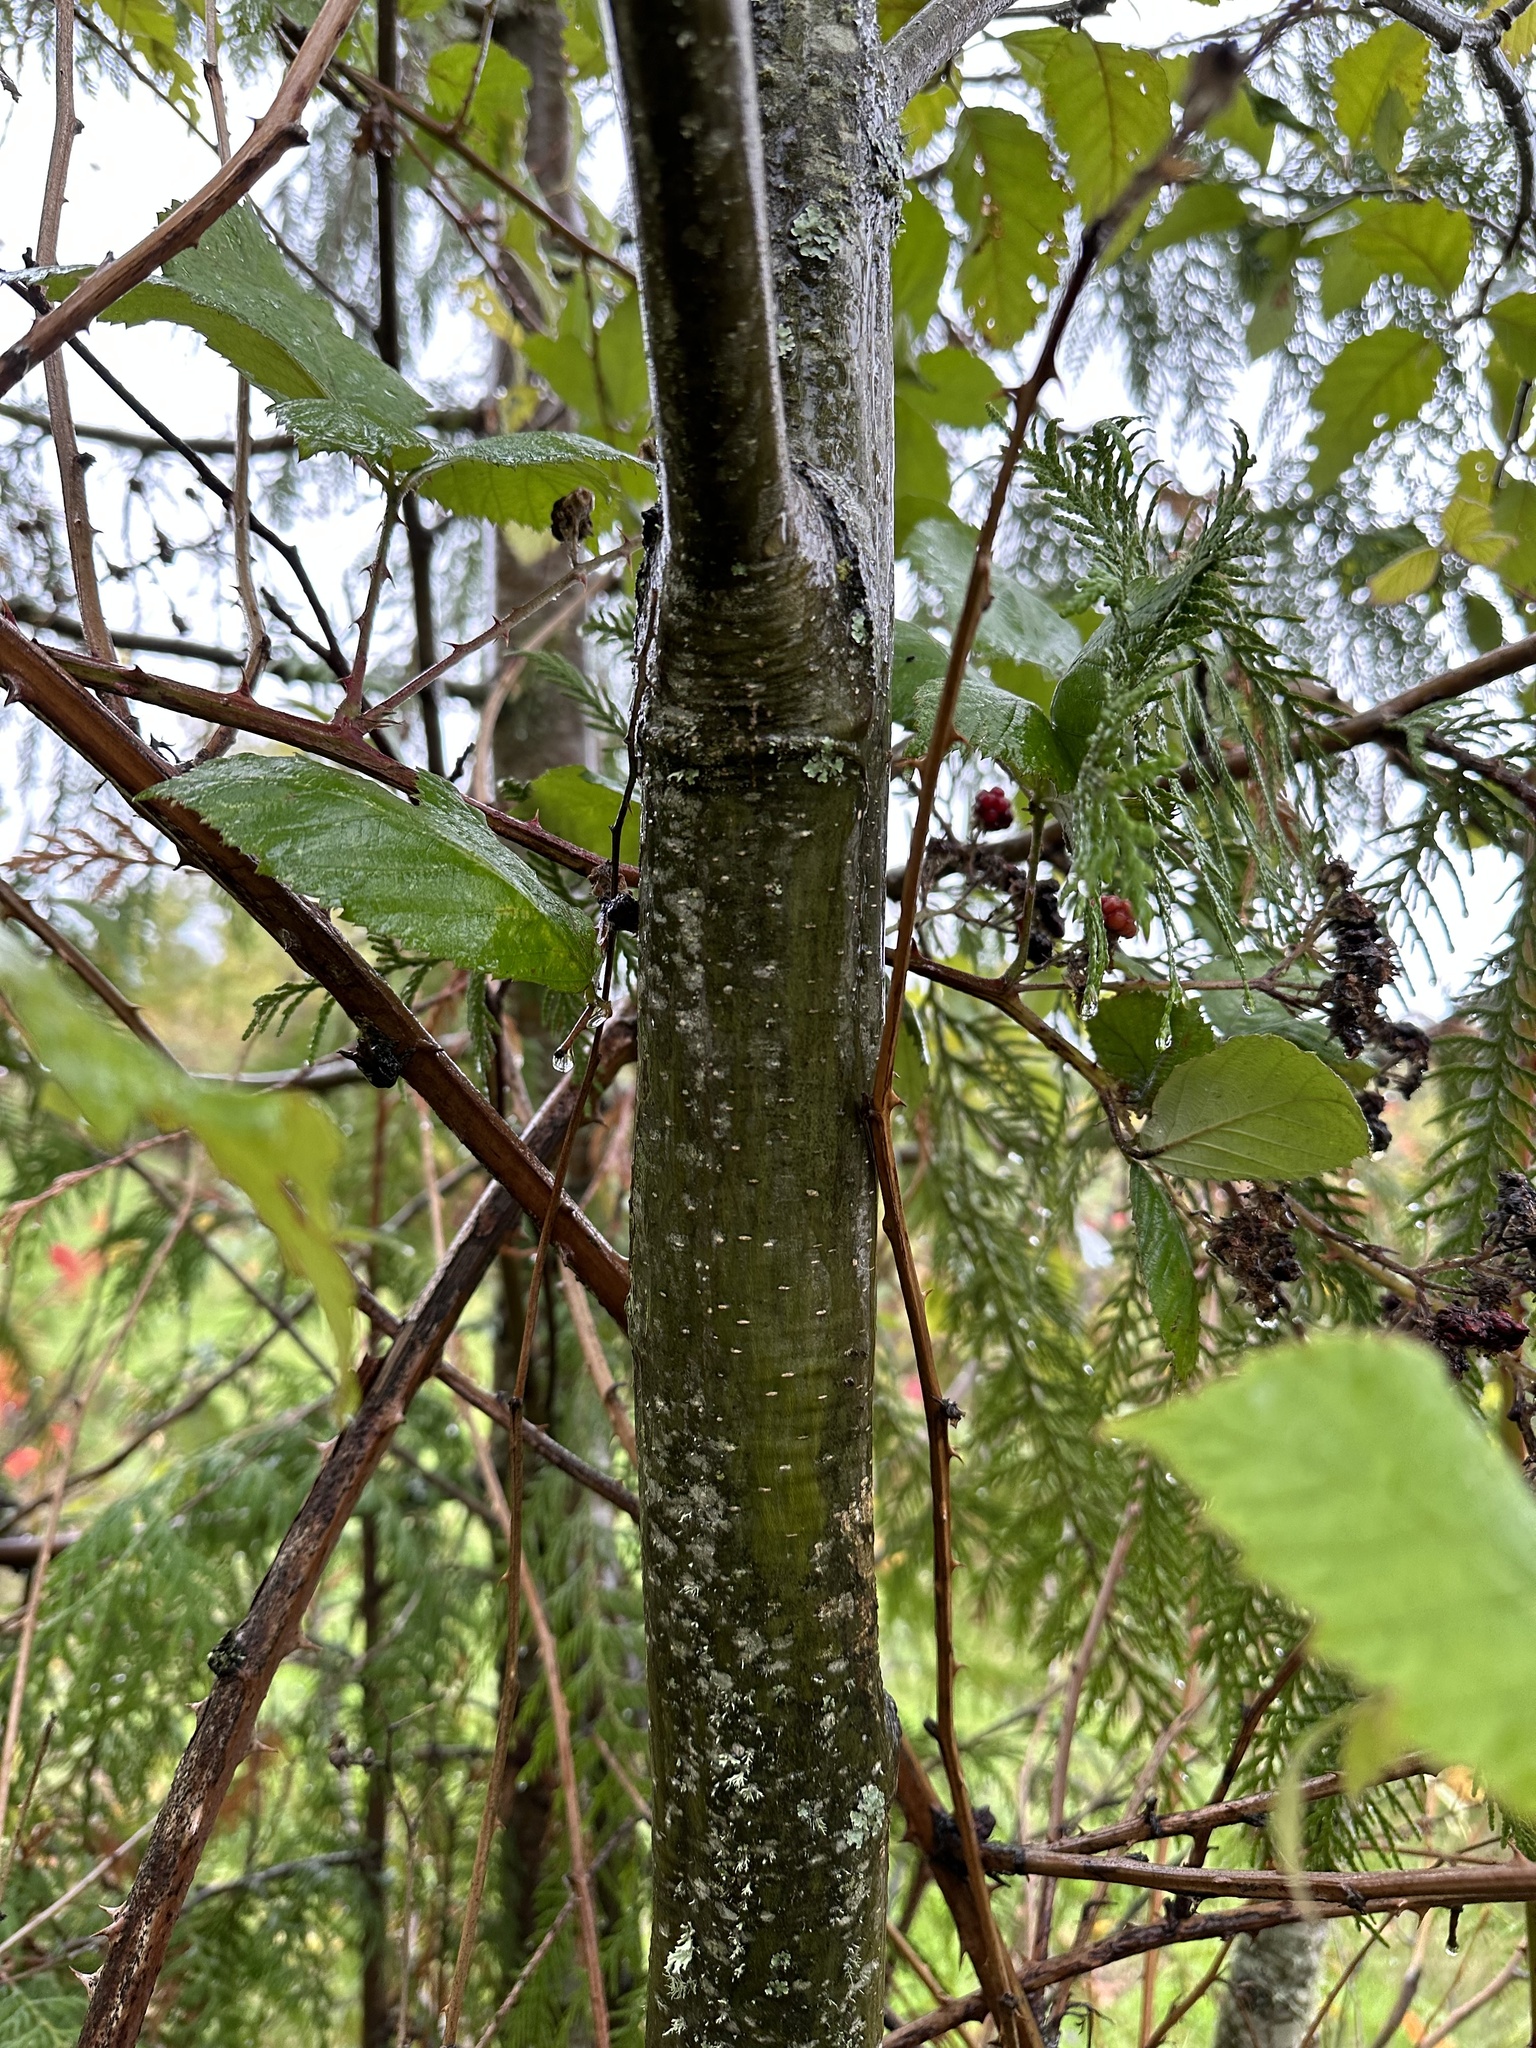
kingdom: Plantae
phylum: Tracheophyta
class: Magnoliopsida
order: Fagales
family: Betulaceae
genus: Alnus
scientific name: Alnus rubra
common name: Red alder
